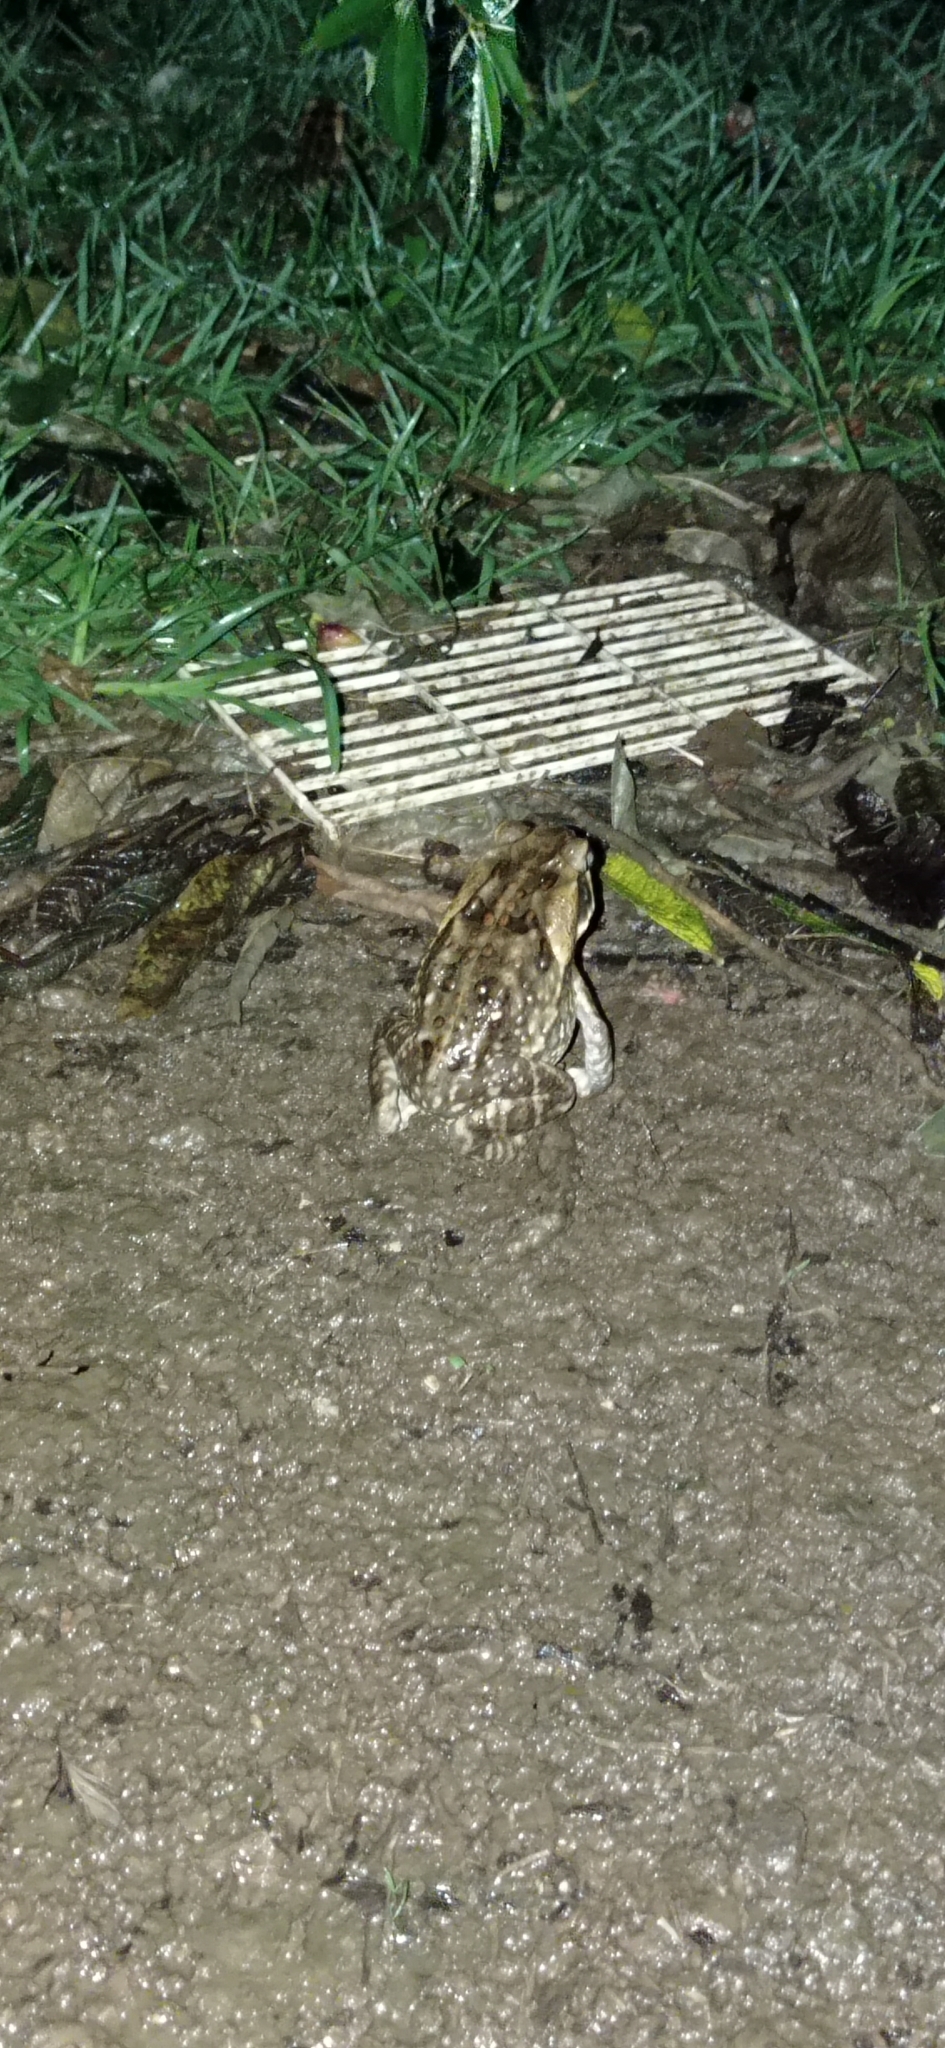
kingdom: Animalia
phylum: Chordata
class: Amphibia
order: Anura
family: Bufonidae
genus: Rhinella
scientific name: Rhinella horribilis
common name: Mesoamerican cane toad
